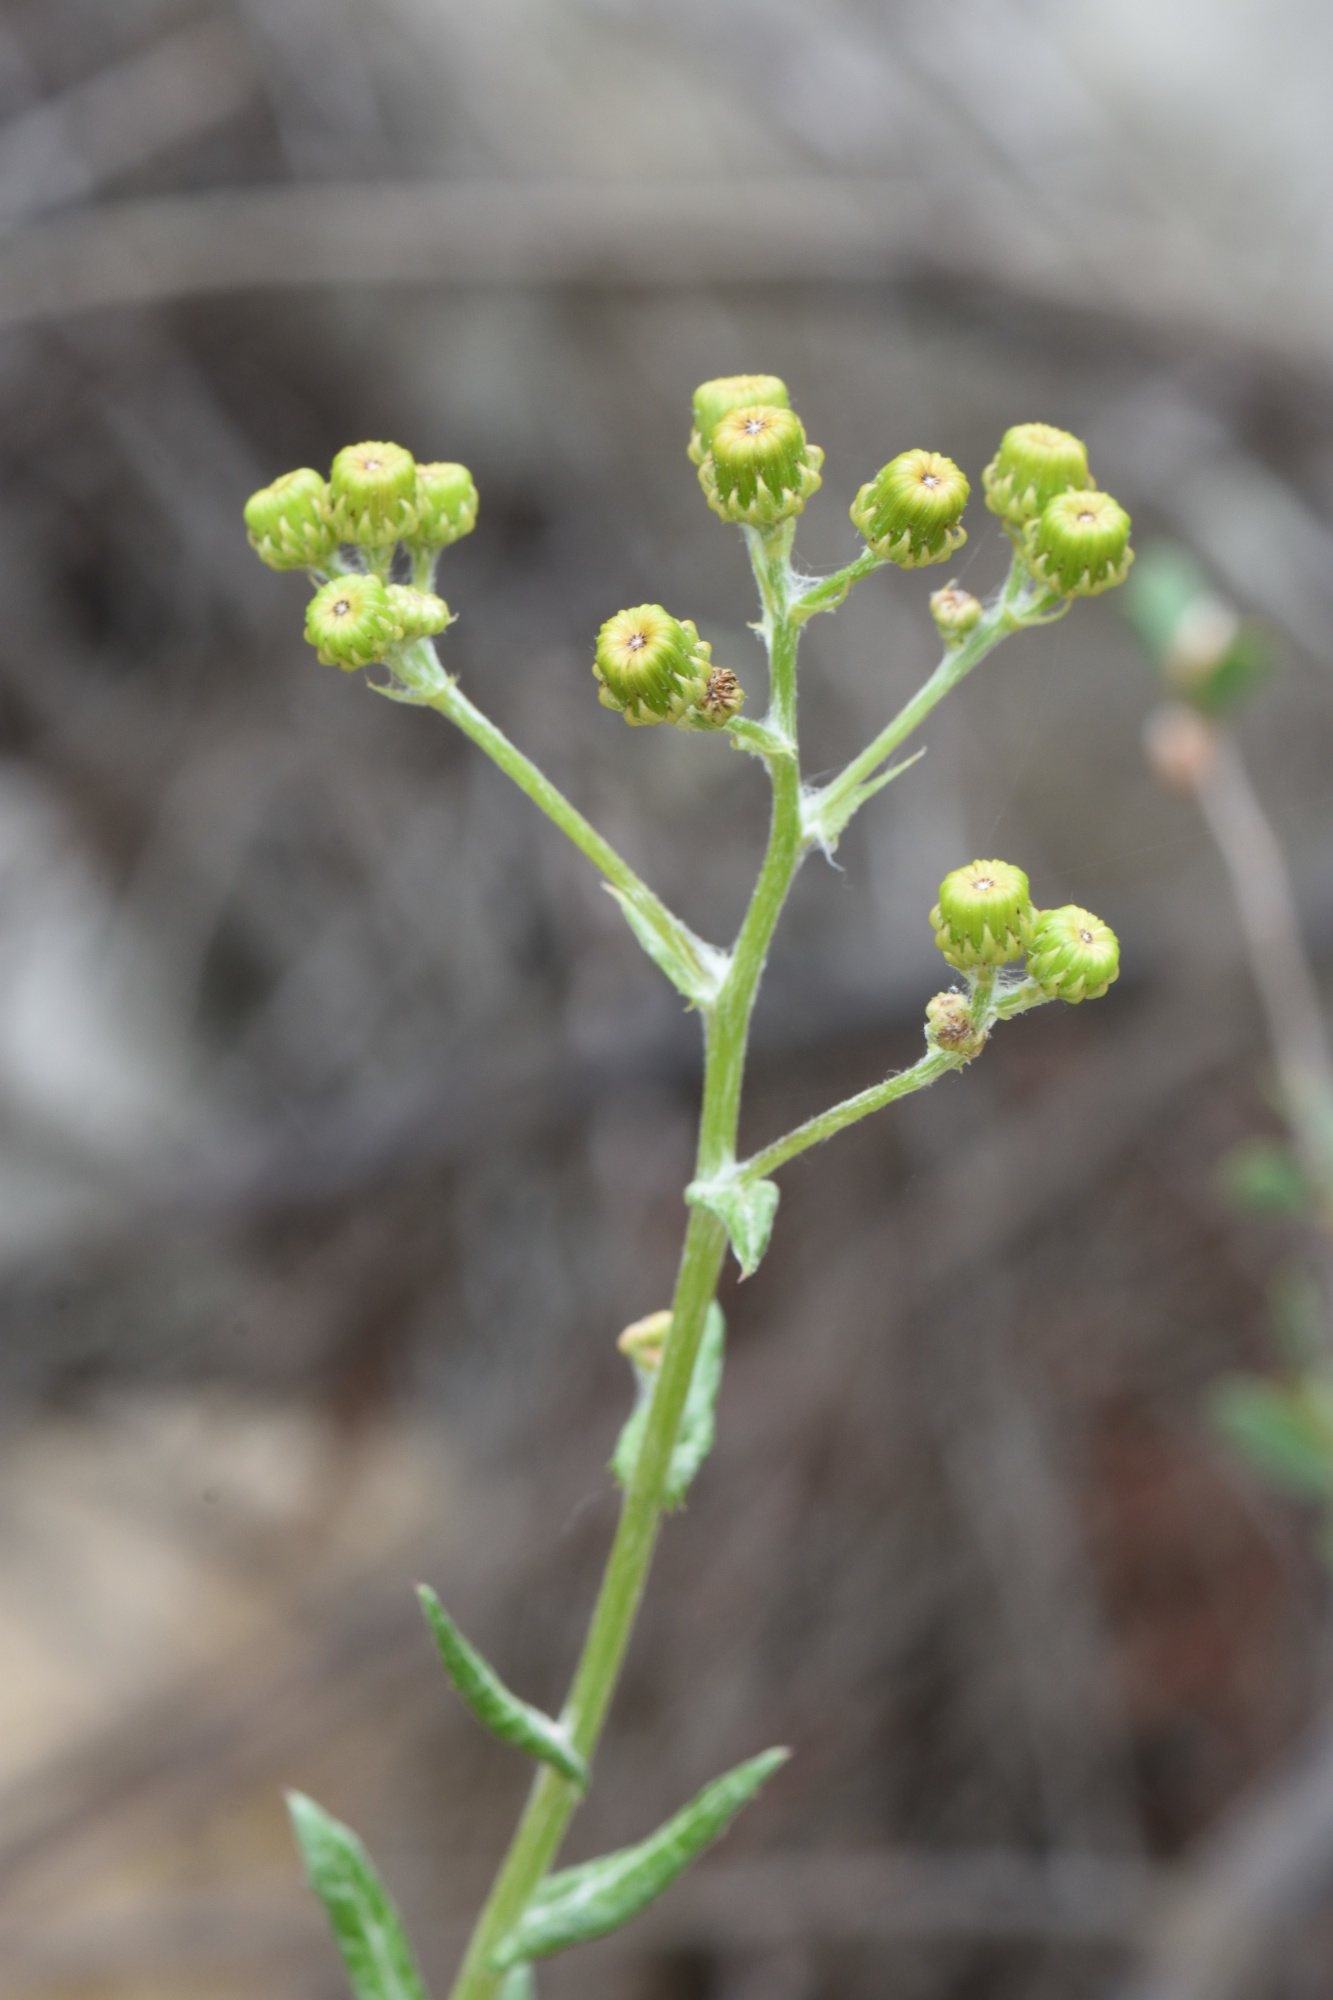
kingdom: Plantae
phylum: Tracheophyta
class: Magnoliopsida
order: Asterales
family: Asteraceae
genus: Senecio
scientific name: Senecio ilicifolius
